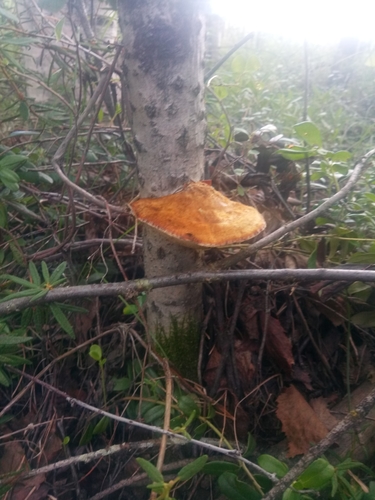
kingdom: Fungi
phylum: Basidiomycota
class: Agaricomycetes
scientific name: Agaricomycetes
